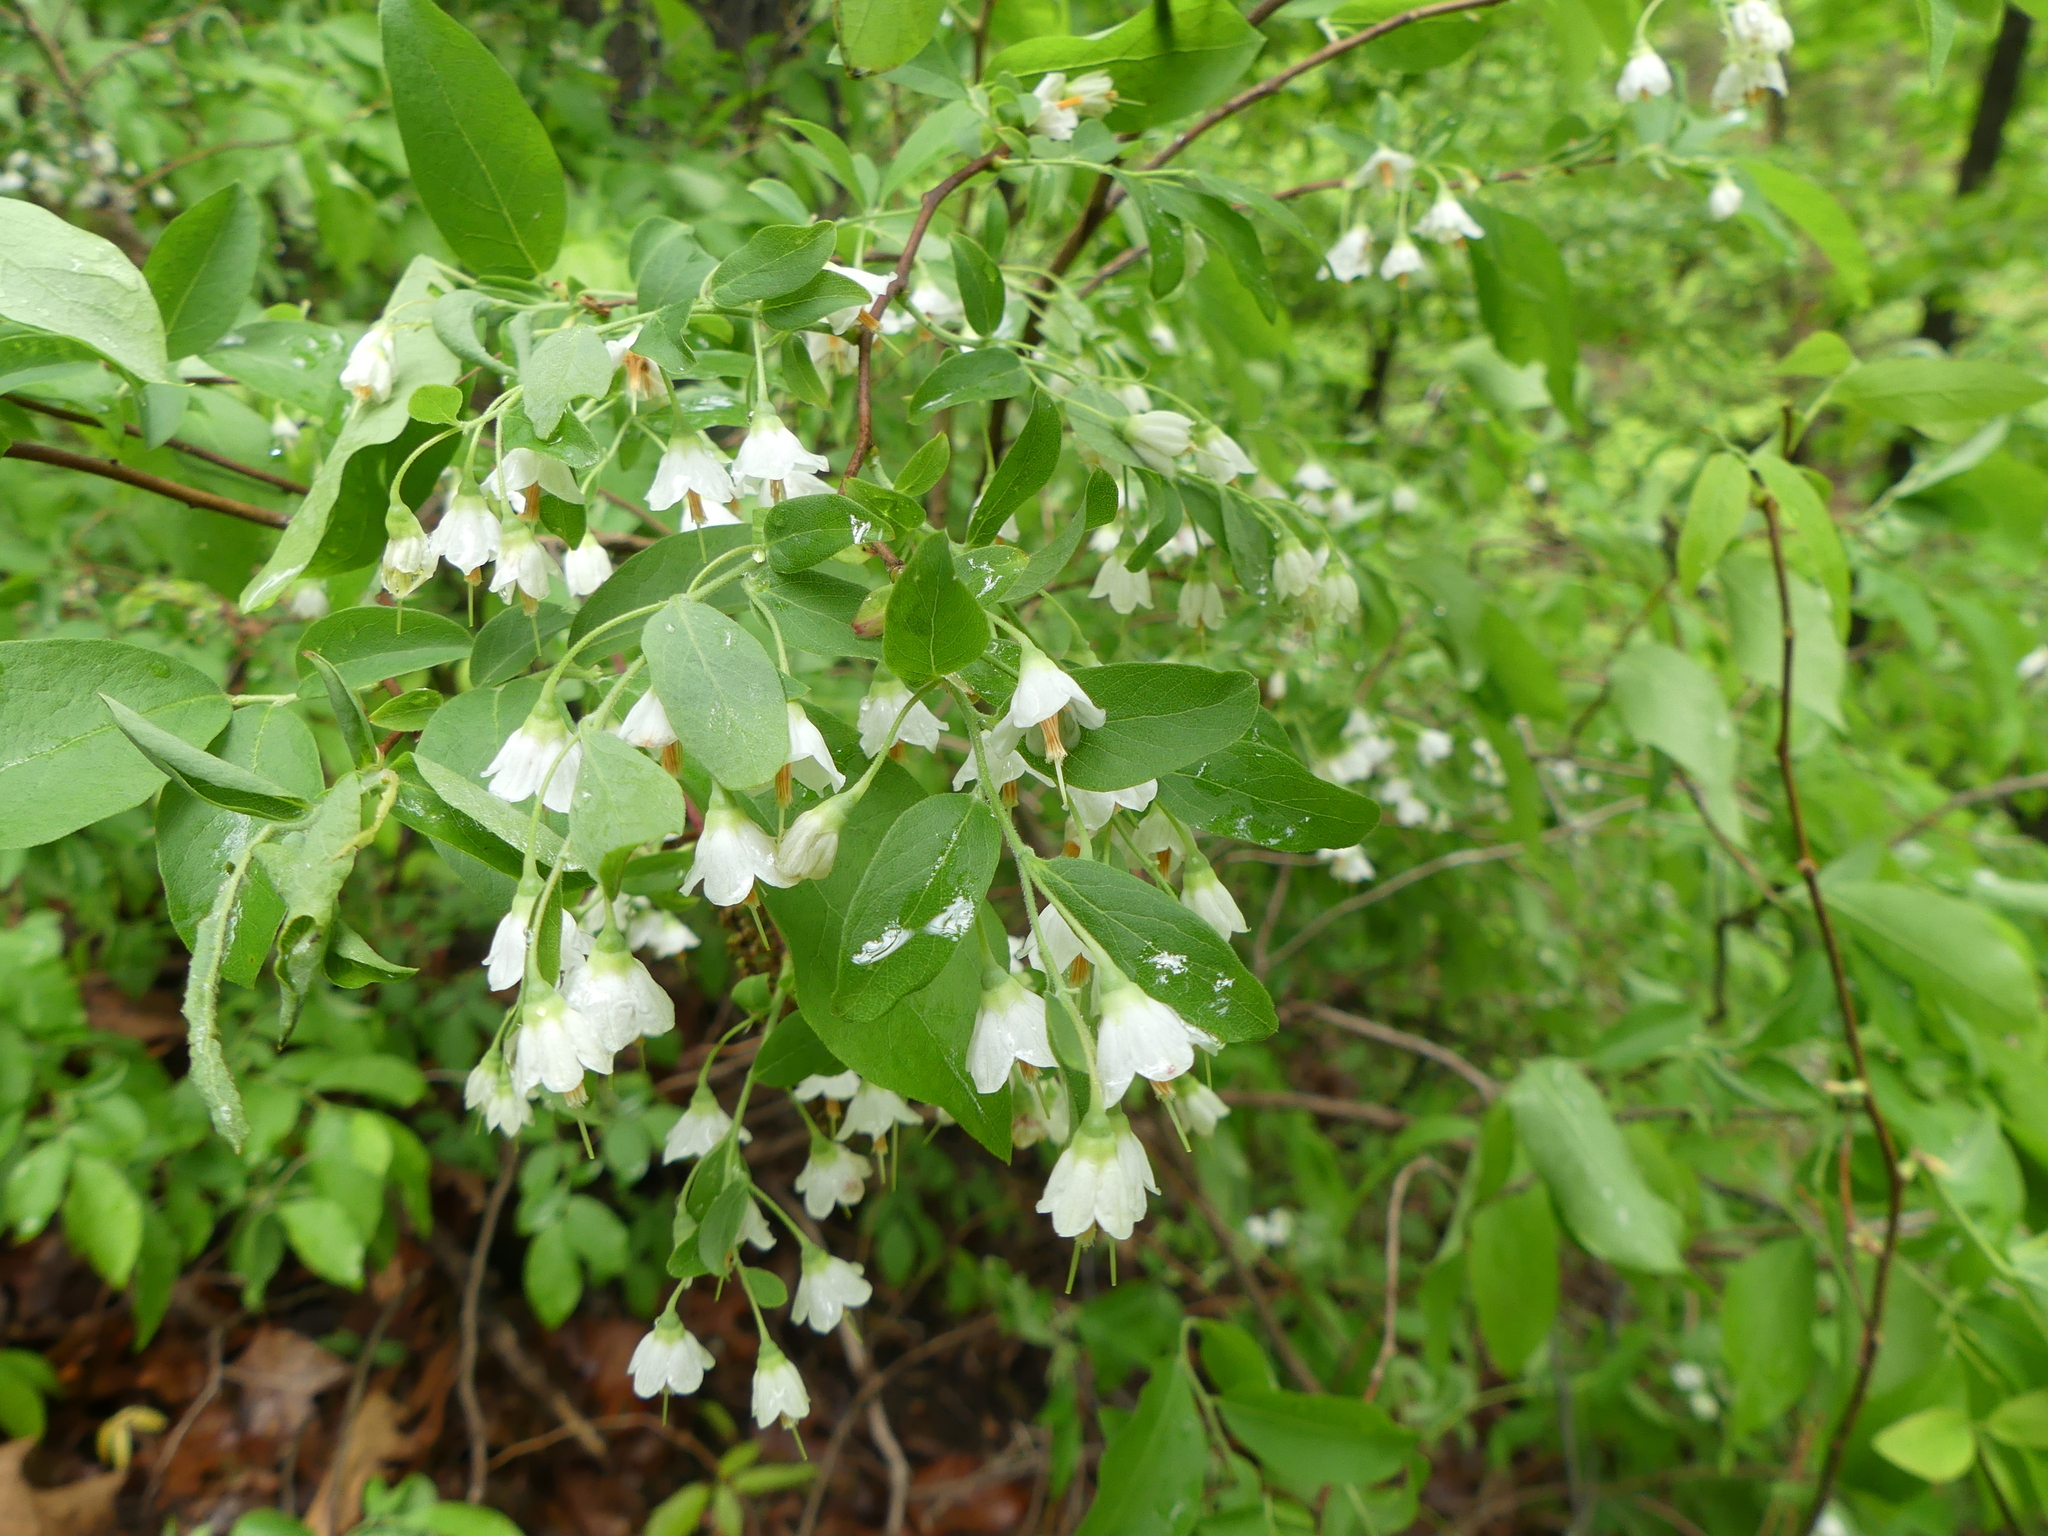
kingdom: Plantae
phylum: Tracheophyta
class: Magnoliopsida
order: Ericales
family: Ericaceae
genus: Vaccinium
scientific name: Vaccinium stamineum
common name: Deerberry
